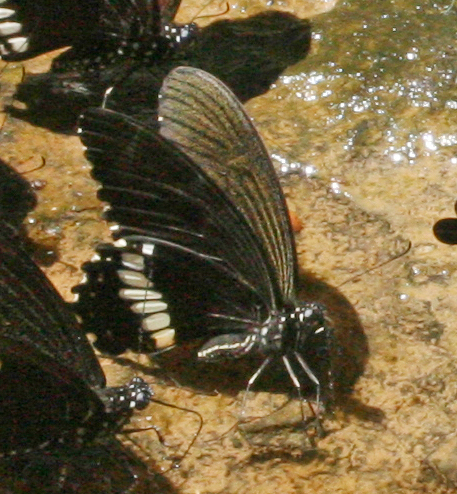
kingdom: Animalia
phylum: Arthropoda
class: Insecta
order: Lepidoptera
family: Papilionidae
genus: Papilio
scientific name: Papilio polytes
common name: Common mormon
